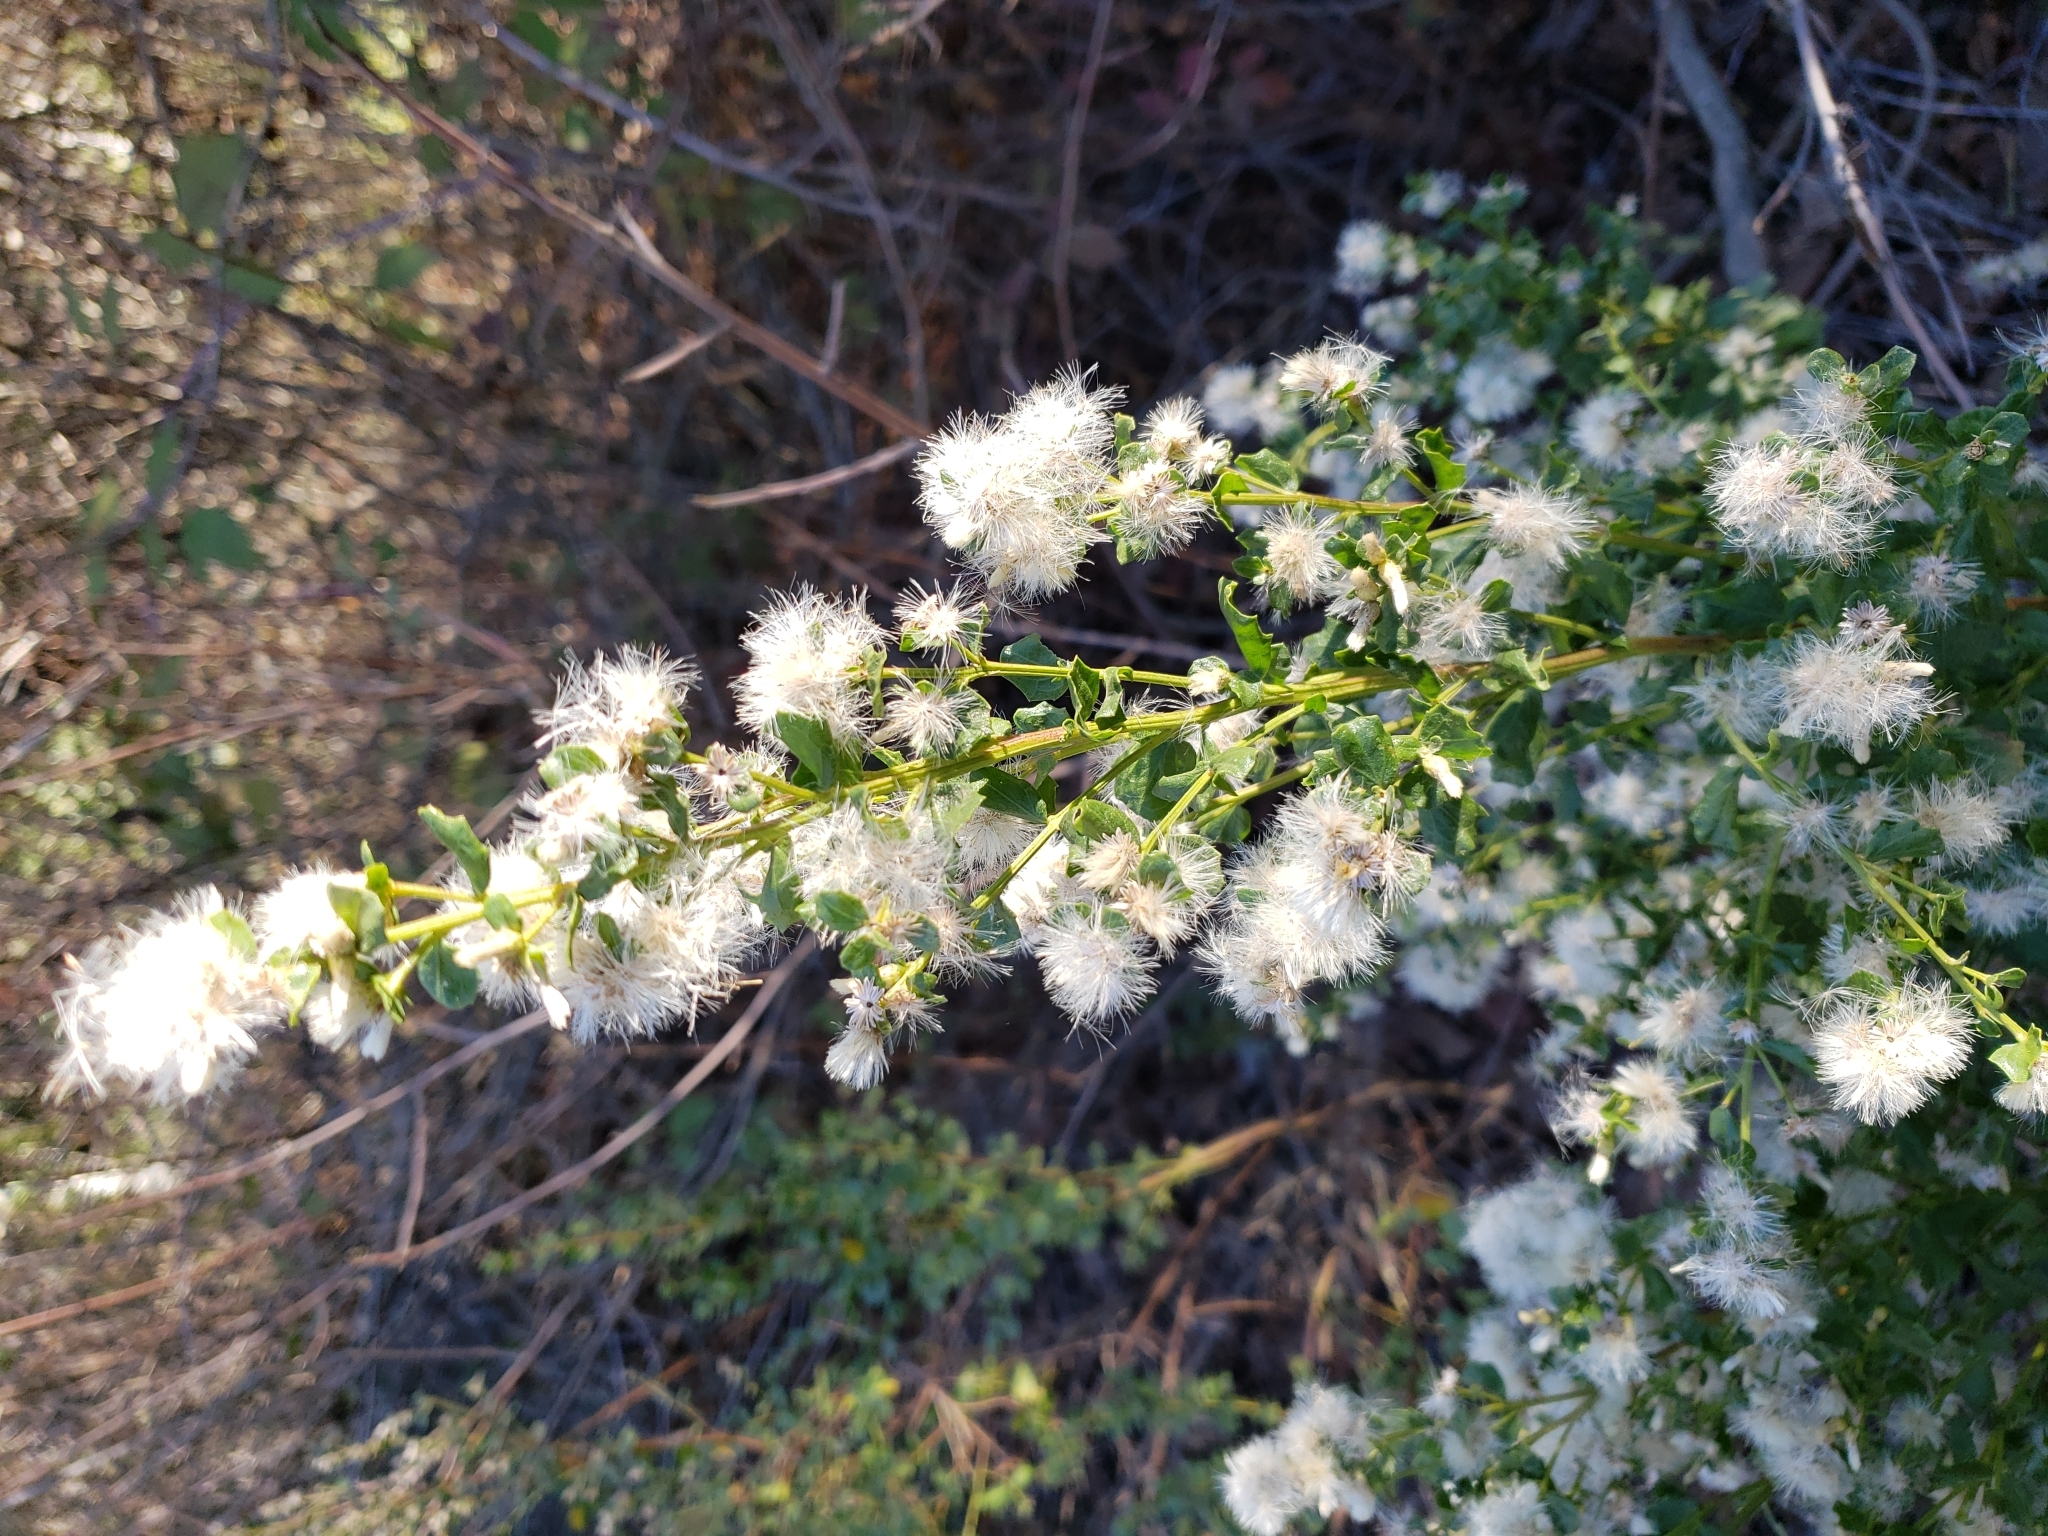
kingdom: Plantae
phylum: Tracheophyta
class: Magnoliopsida
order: Asterales
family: Asteraceae
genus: Baccharis
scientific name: Baccharis pilularis
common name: Coyotebrush
